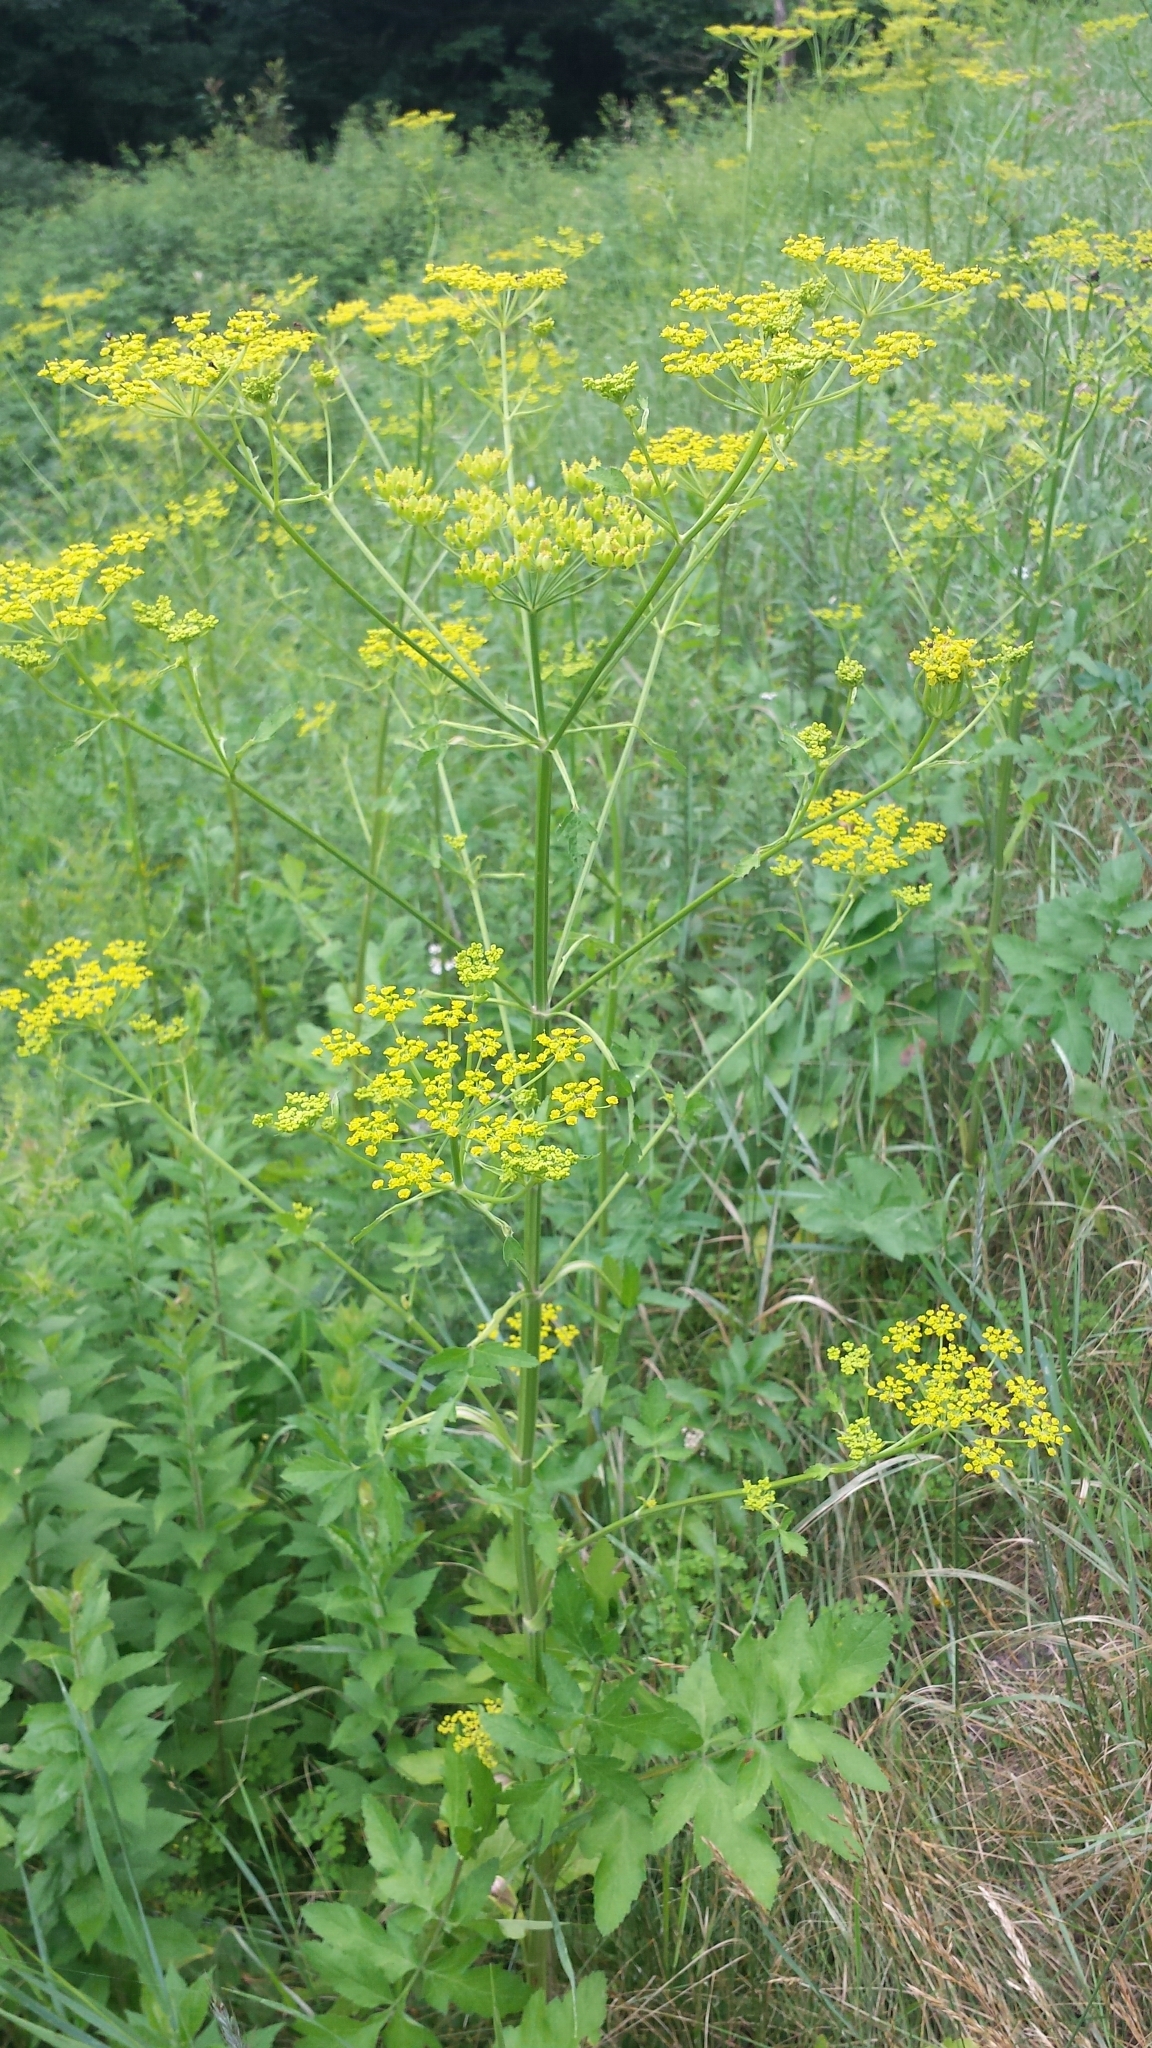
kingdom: Plantae
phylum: Tracheophyta
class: Magnoliopsida
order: Apiales
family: Apiaceae
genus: Pastinaca
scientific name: Pastinaca sativa
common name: Wild parsnip
